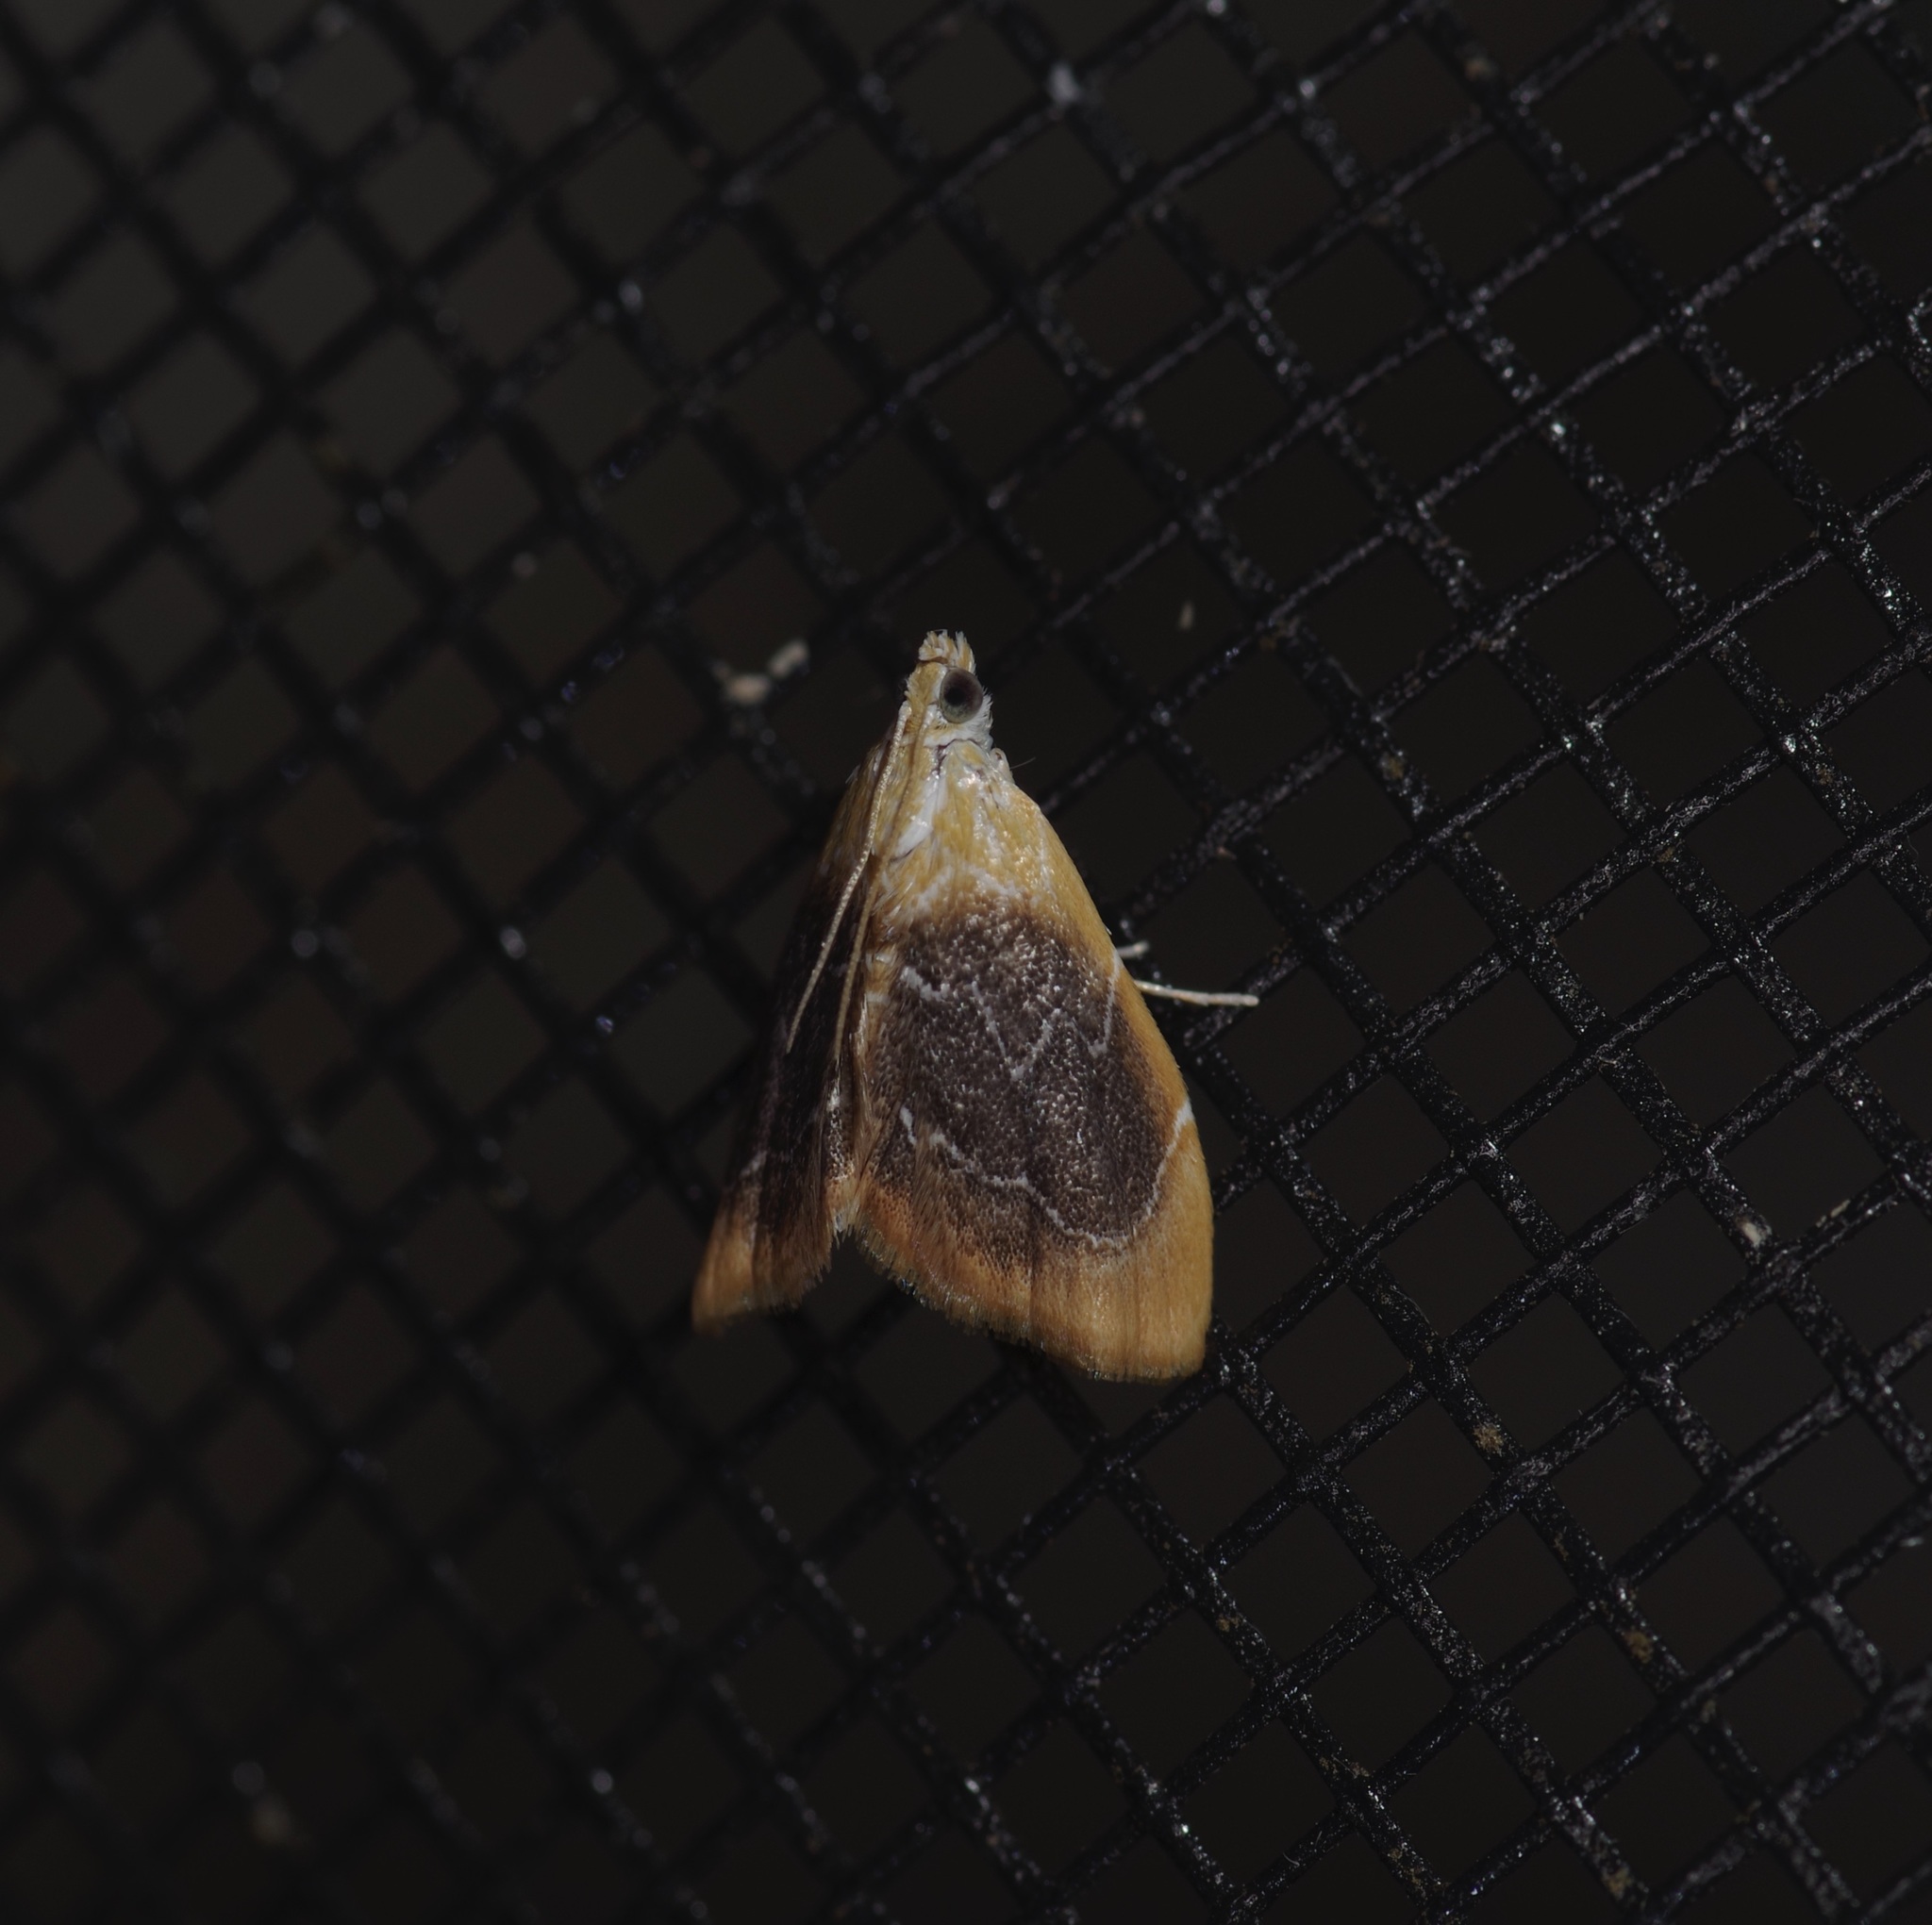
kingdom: Animalia
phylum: Arthropoda
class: Insecta
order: Lepidoptera
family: Crambidae
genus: Glaphyria
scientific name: Glaphyria fulminalis
